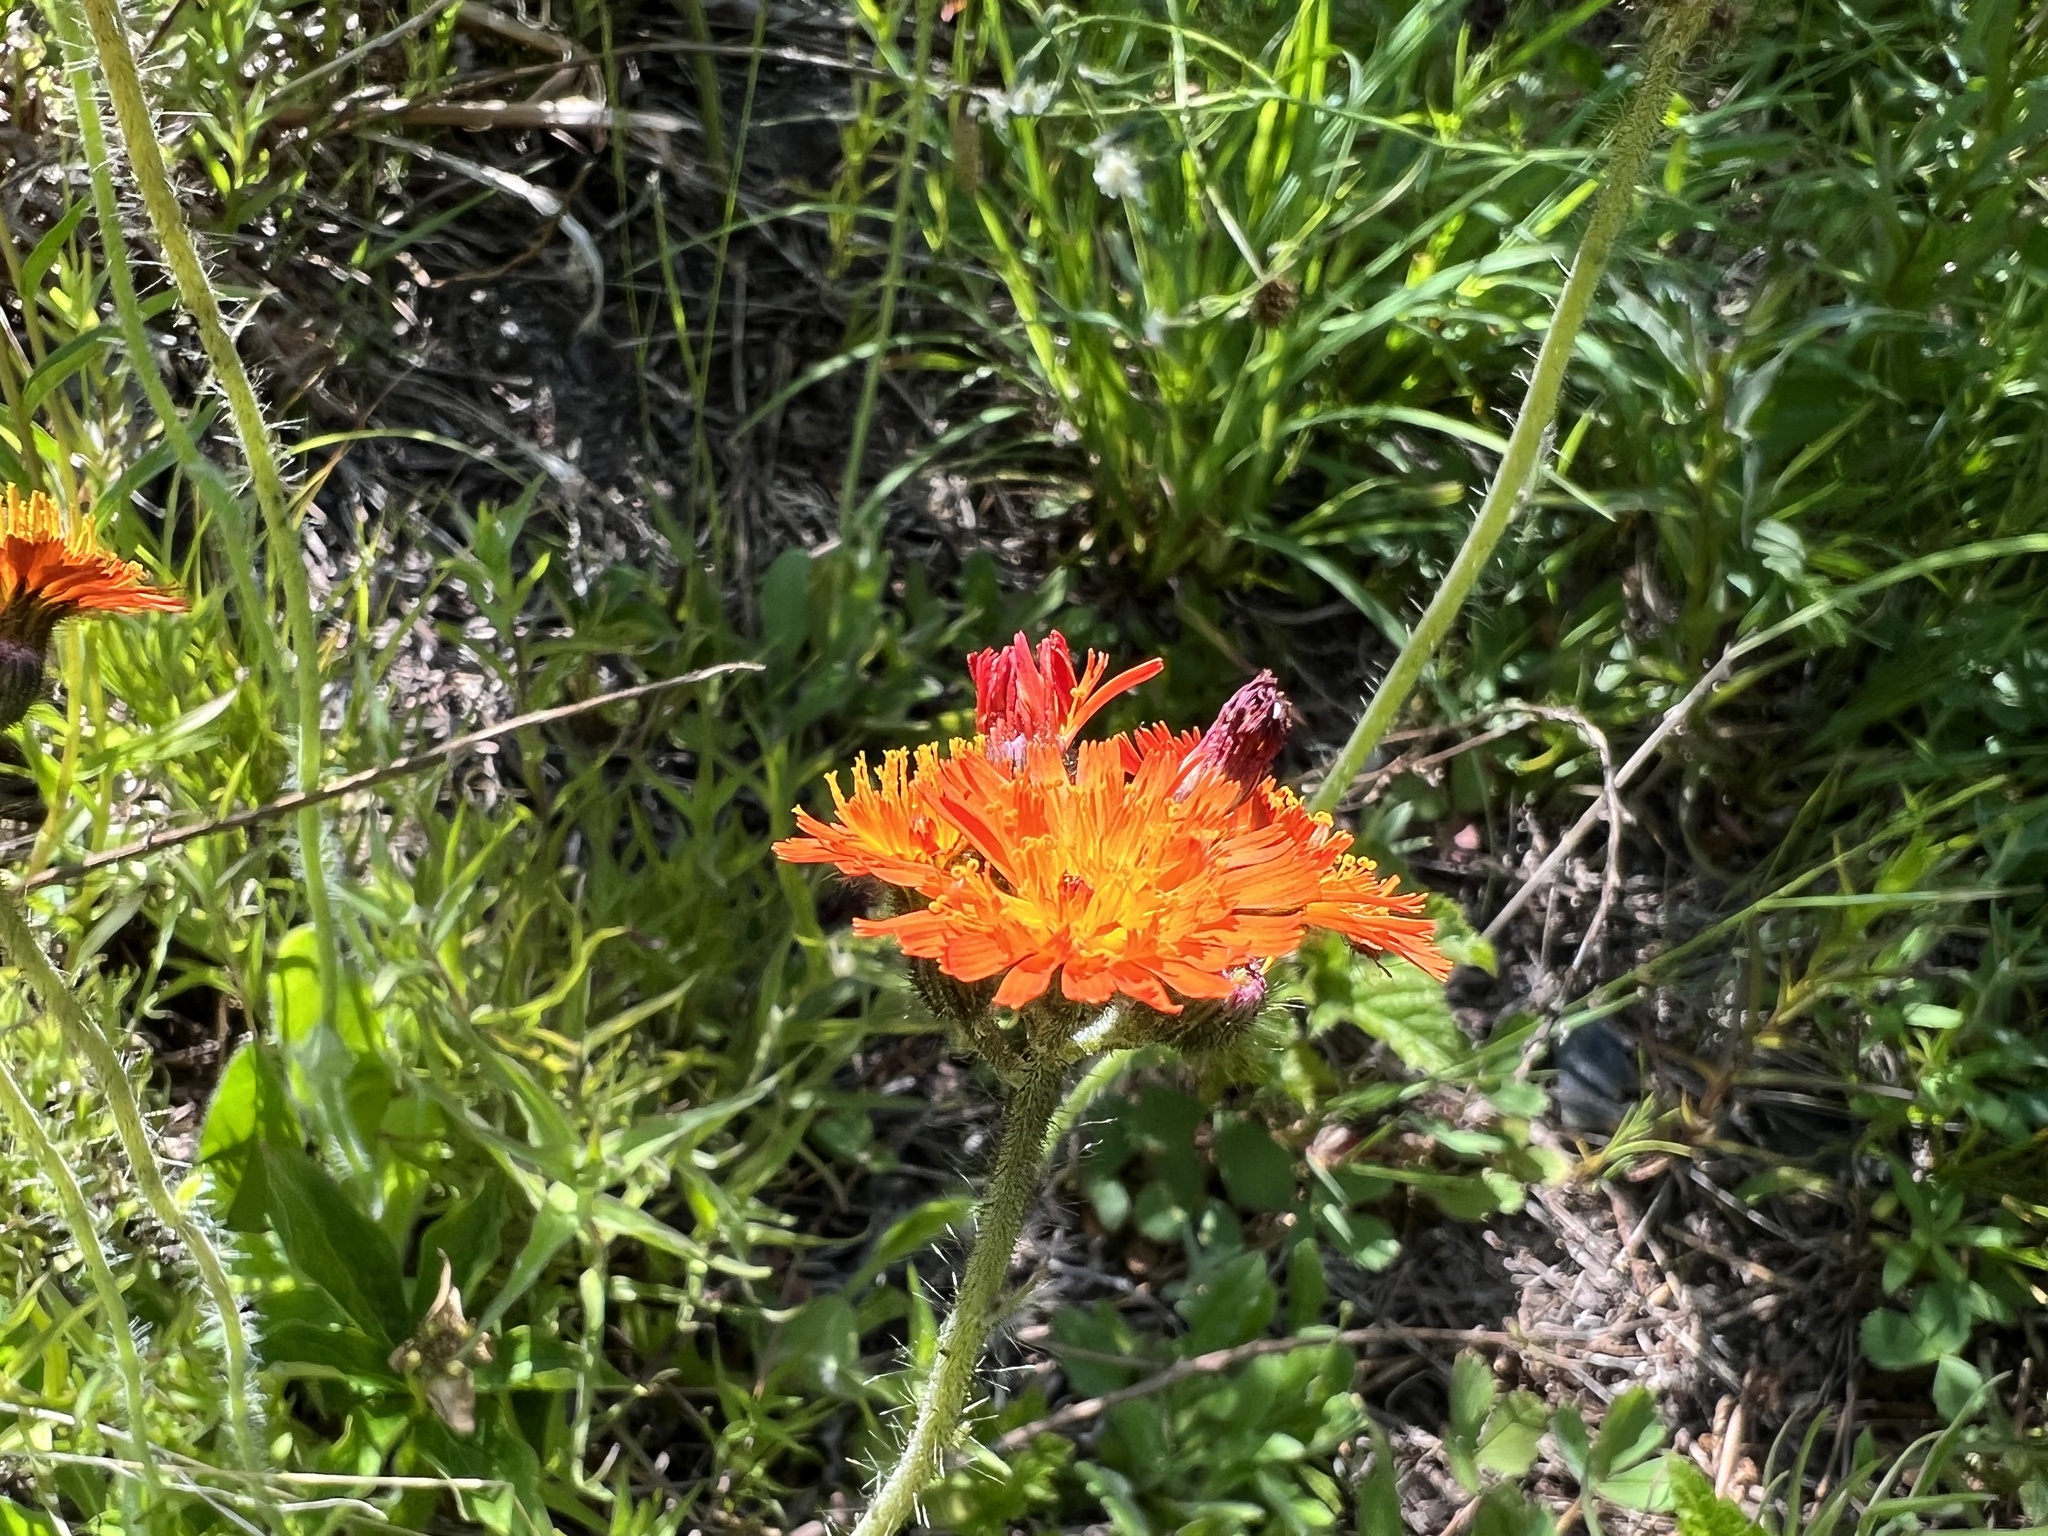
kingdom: Plantae
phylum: Tracheophyta
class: Magnoliopsida
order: Asterales
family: Asteraceae
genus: Pilosella
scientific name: Pilosella aurantiaca
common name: Fox-and-cubs
